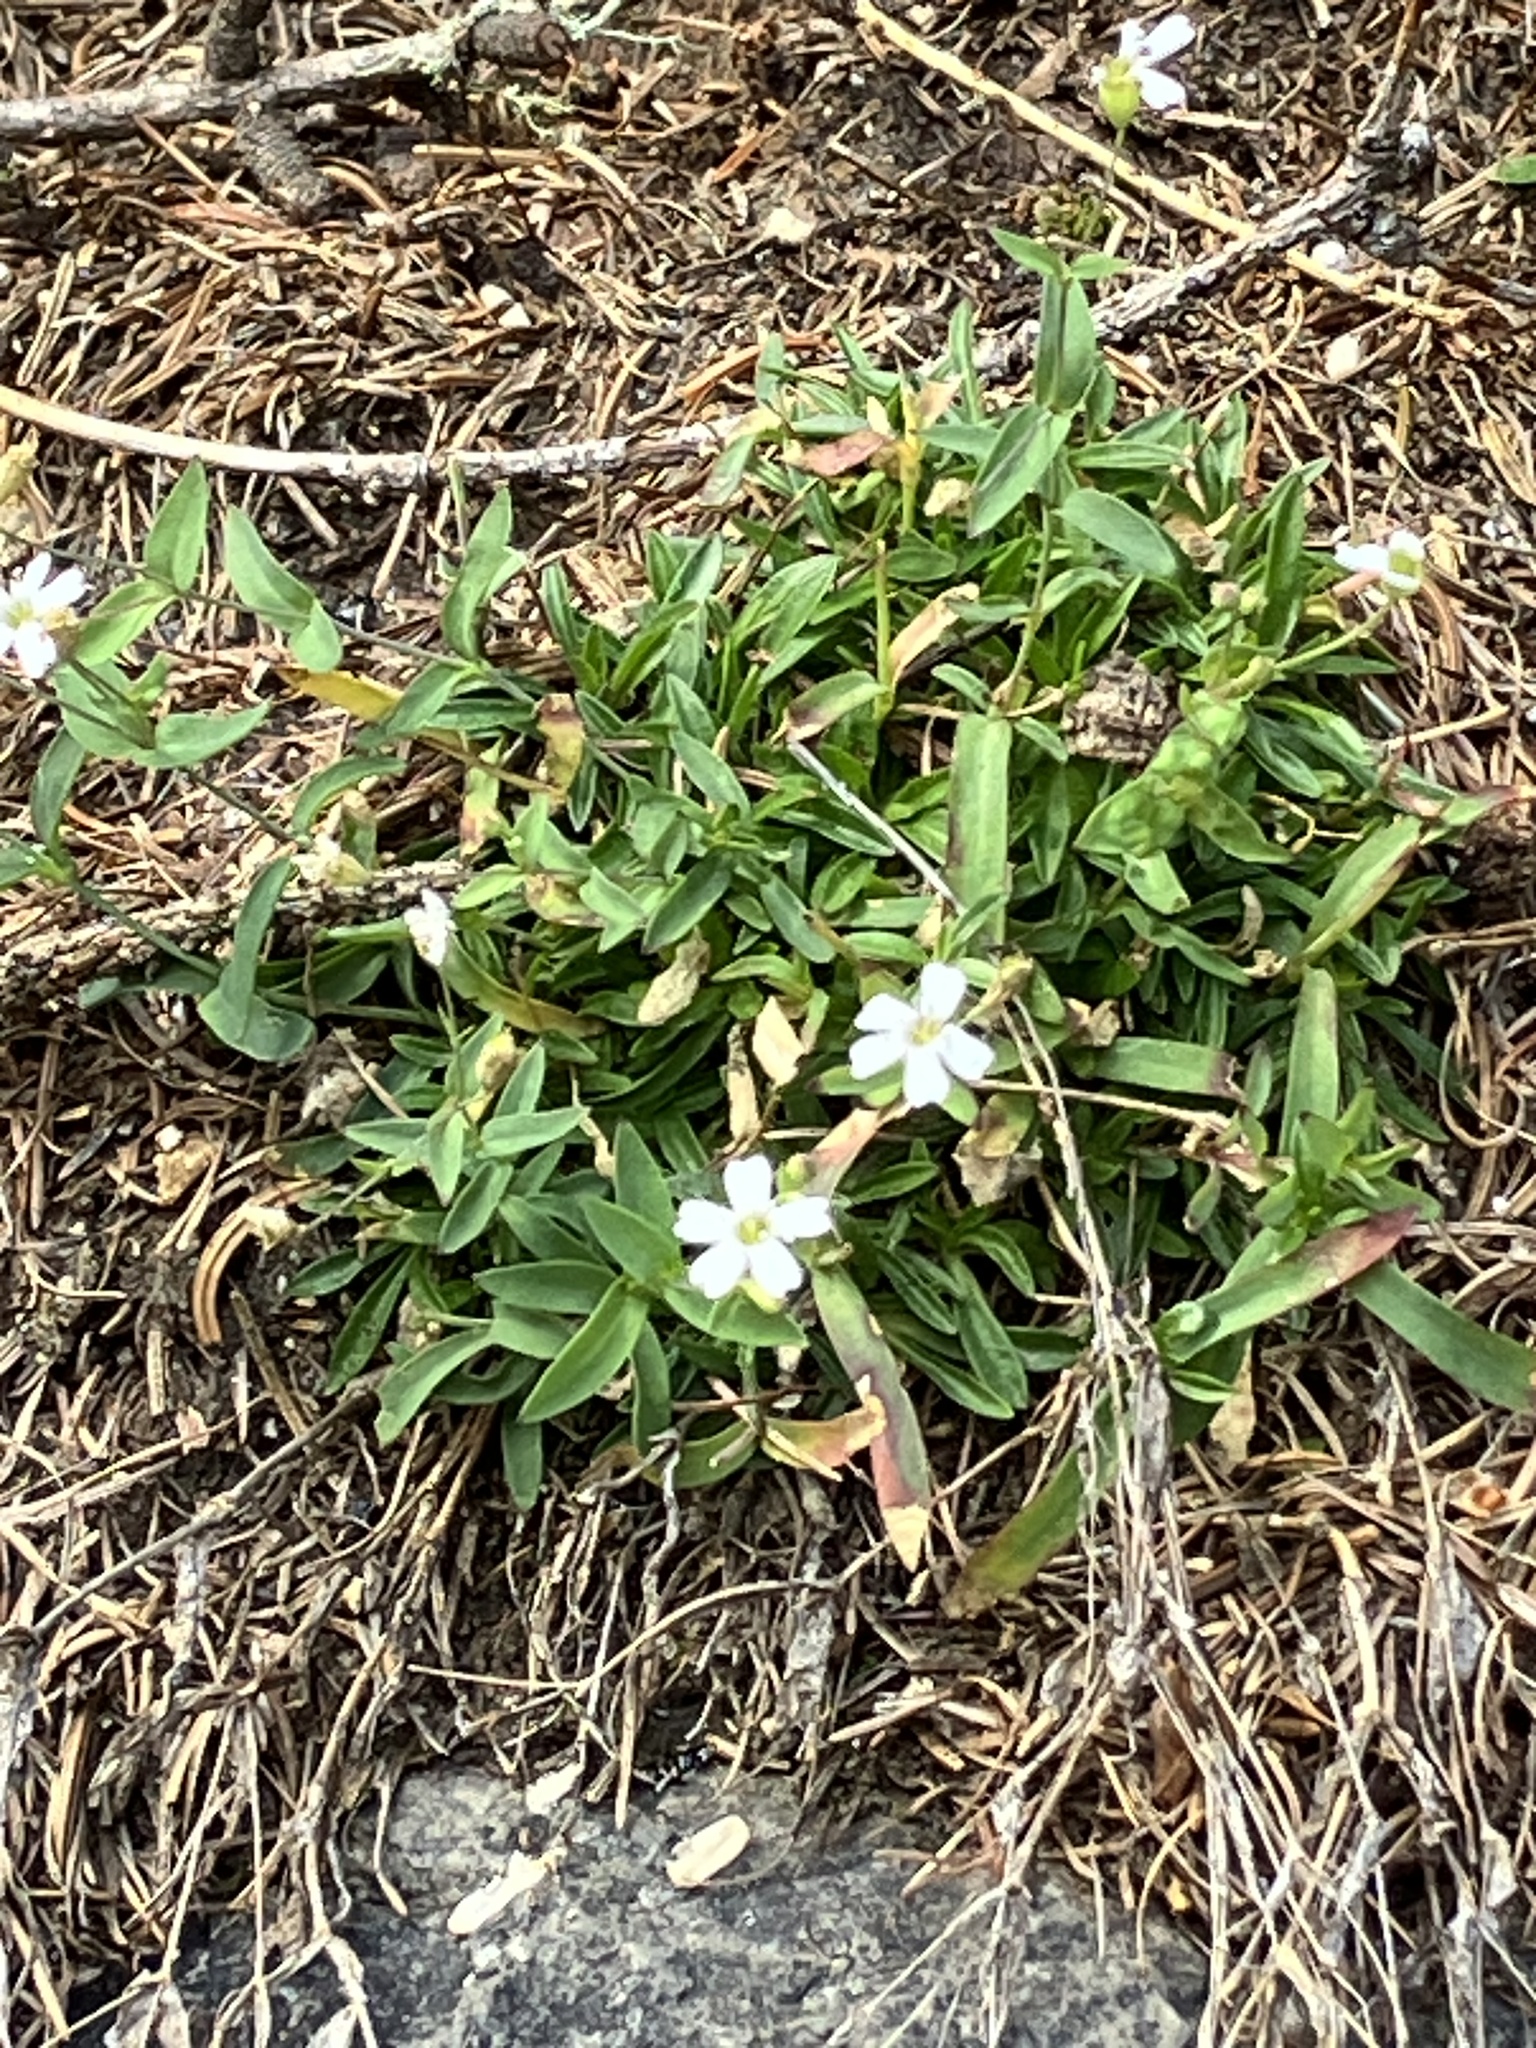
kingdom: Plantae
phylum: Tracheophyta
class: Magnoliopsida
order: Caryophyllales
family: Caryophyllaceae
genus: Atocion
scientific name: Atocion rupestre
